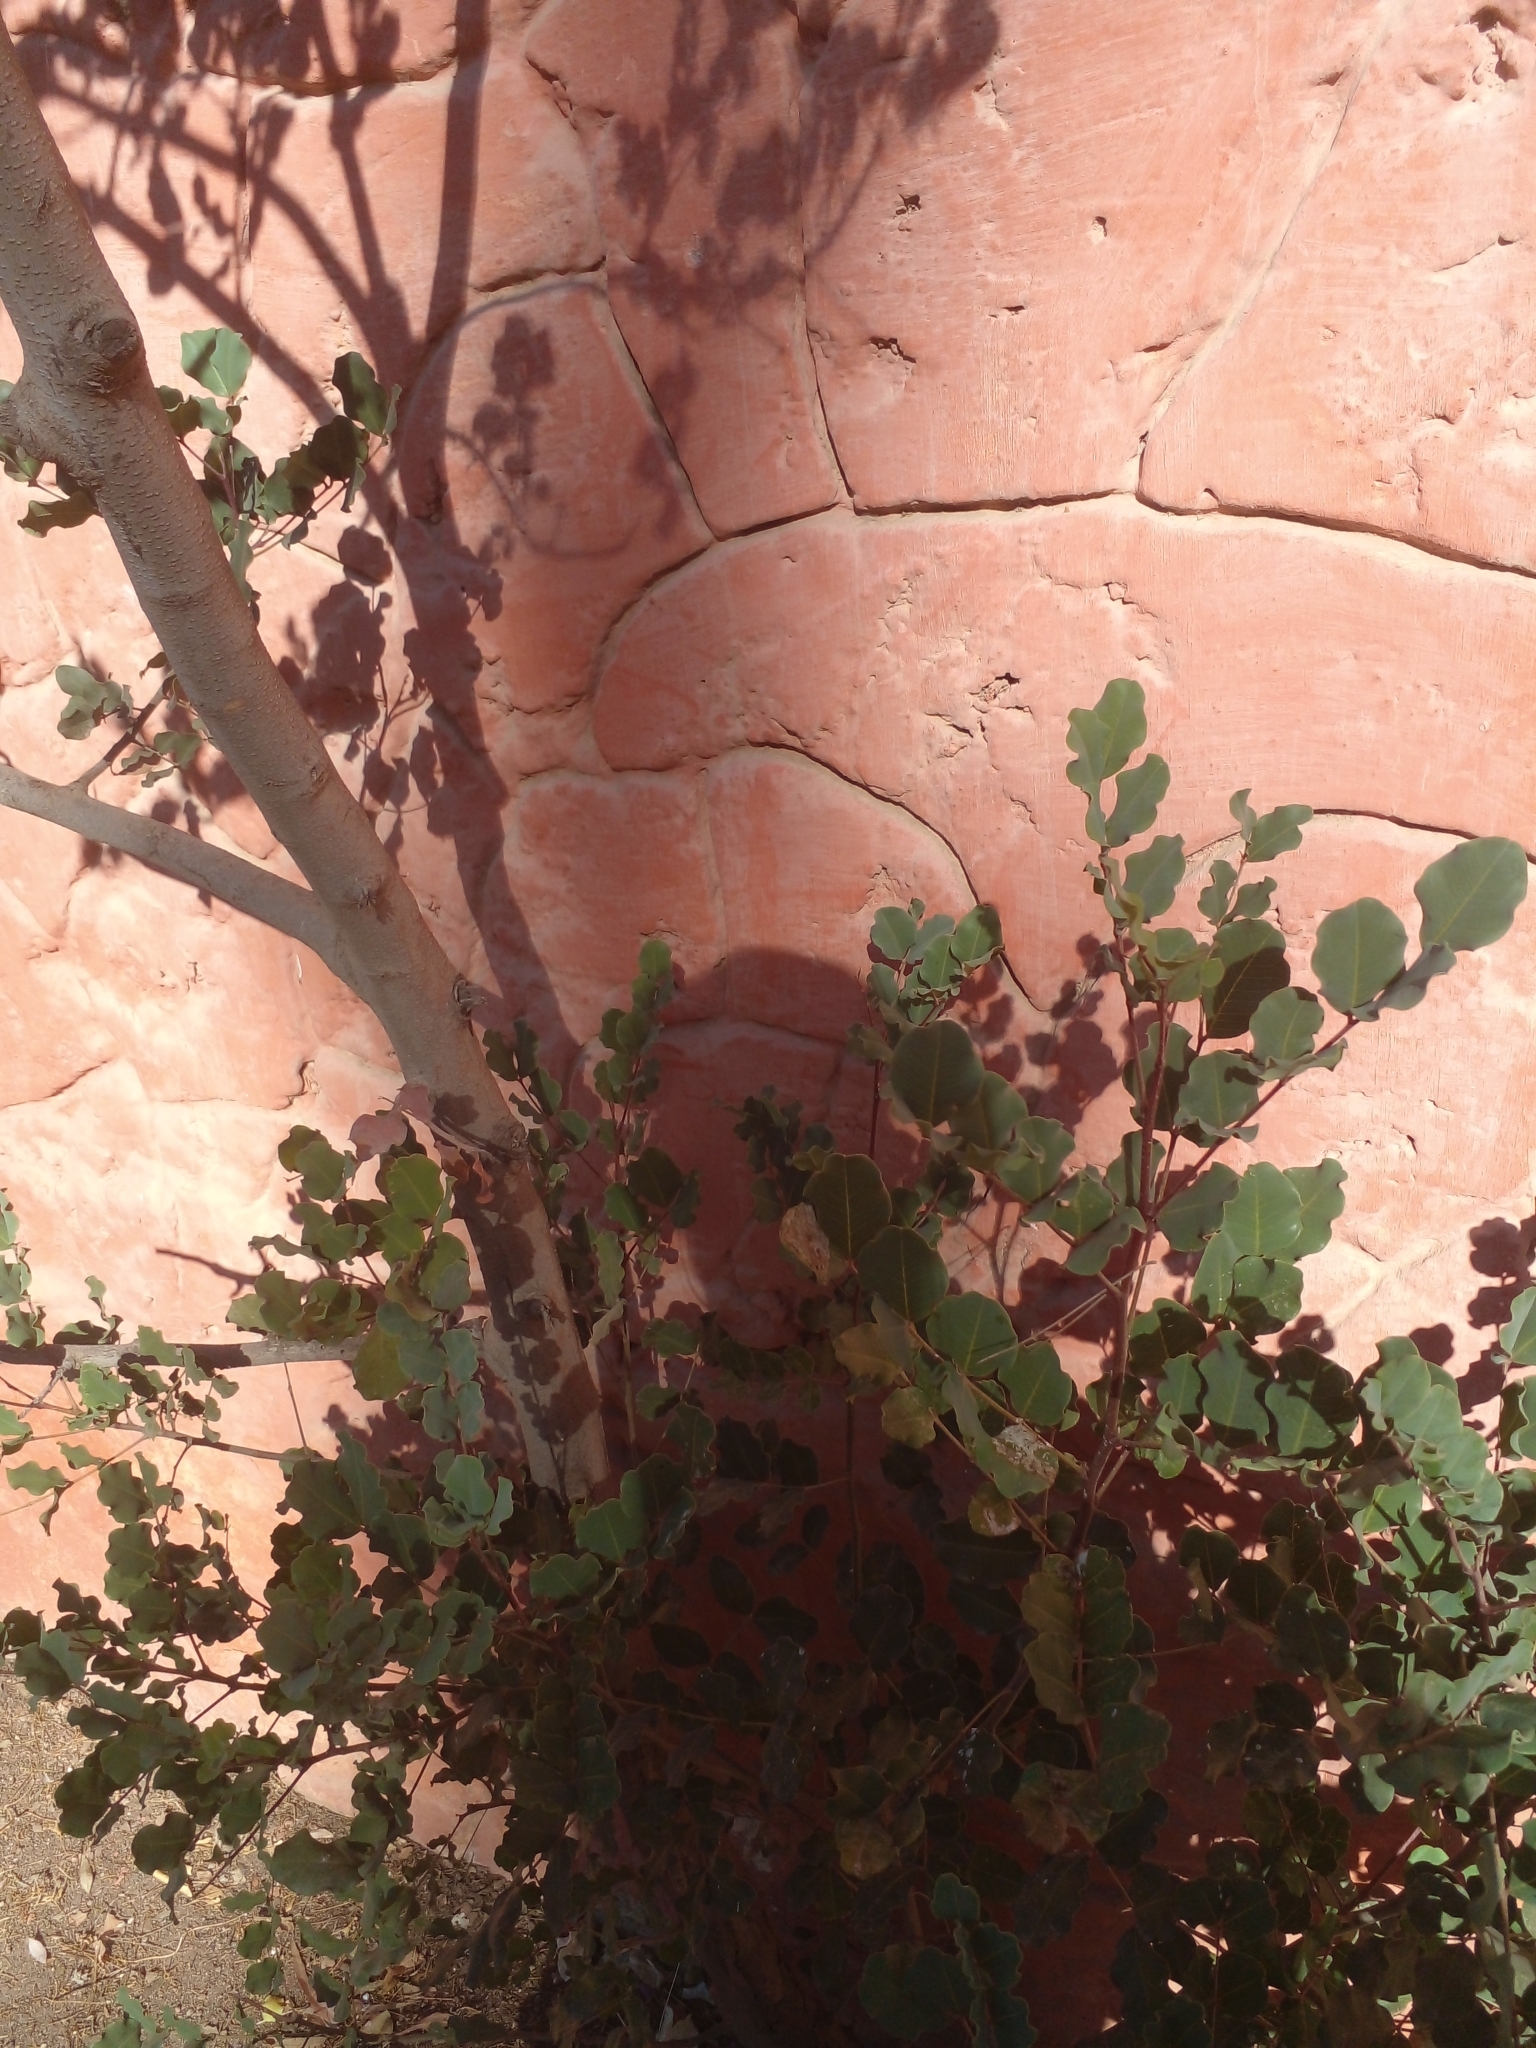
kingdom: Plantae
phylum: Tracheophyta
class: Magnoliopsida
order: Fabales
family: Fabaceae
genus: Ceratonia
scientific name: Ceratonia siliqua
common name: Carob
